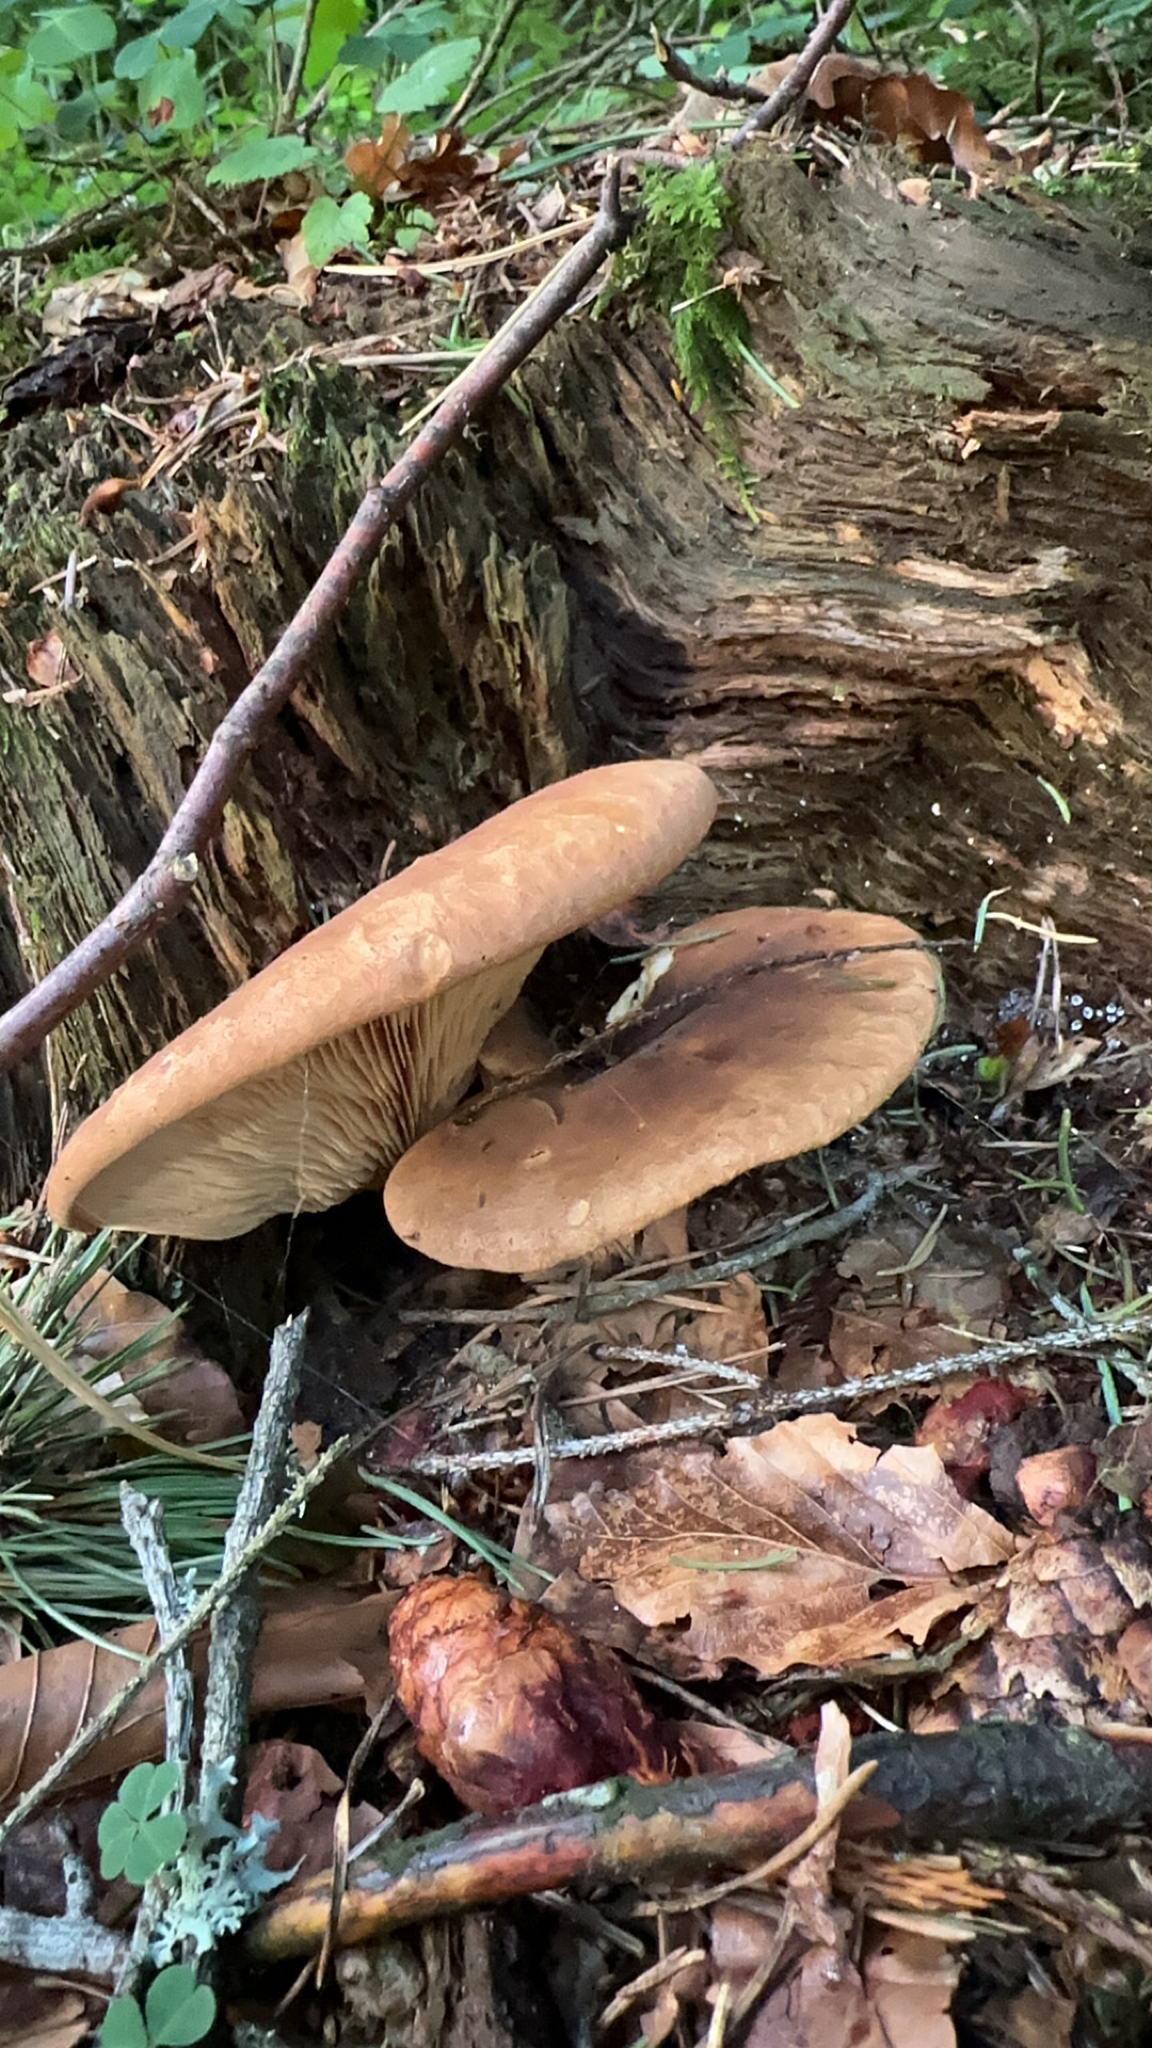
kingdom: Fungi
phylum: Basidiomycota
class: Agaricomycetes
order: Boletales
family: Tapinellaceae
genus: Tapinella
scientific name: Tapinella atrotomentosa
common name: Velvet rollrim
